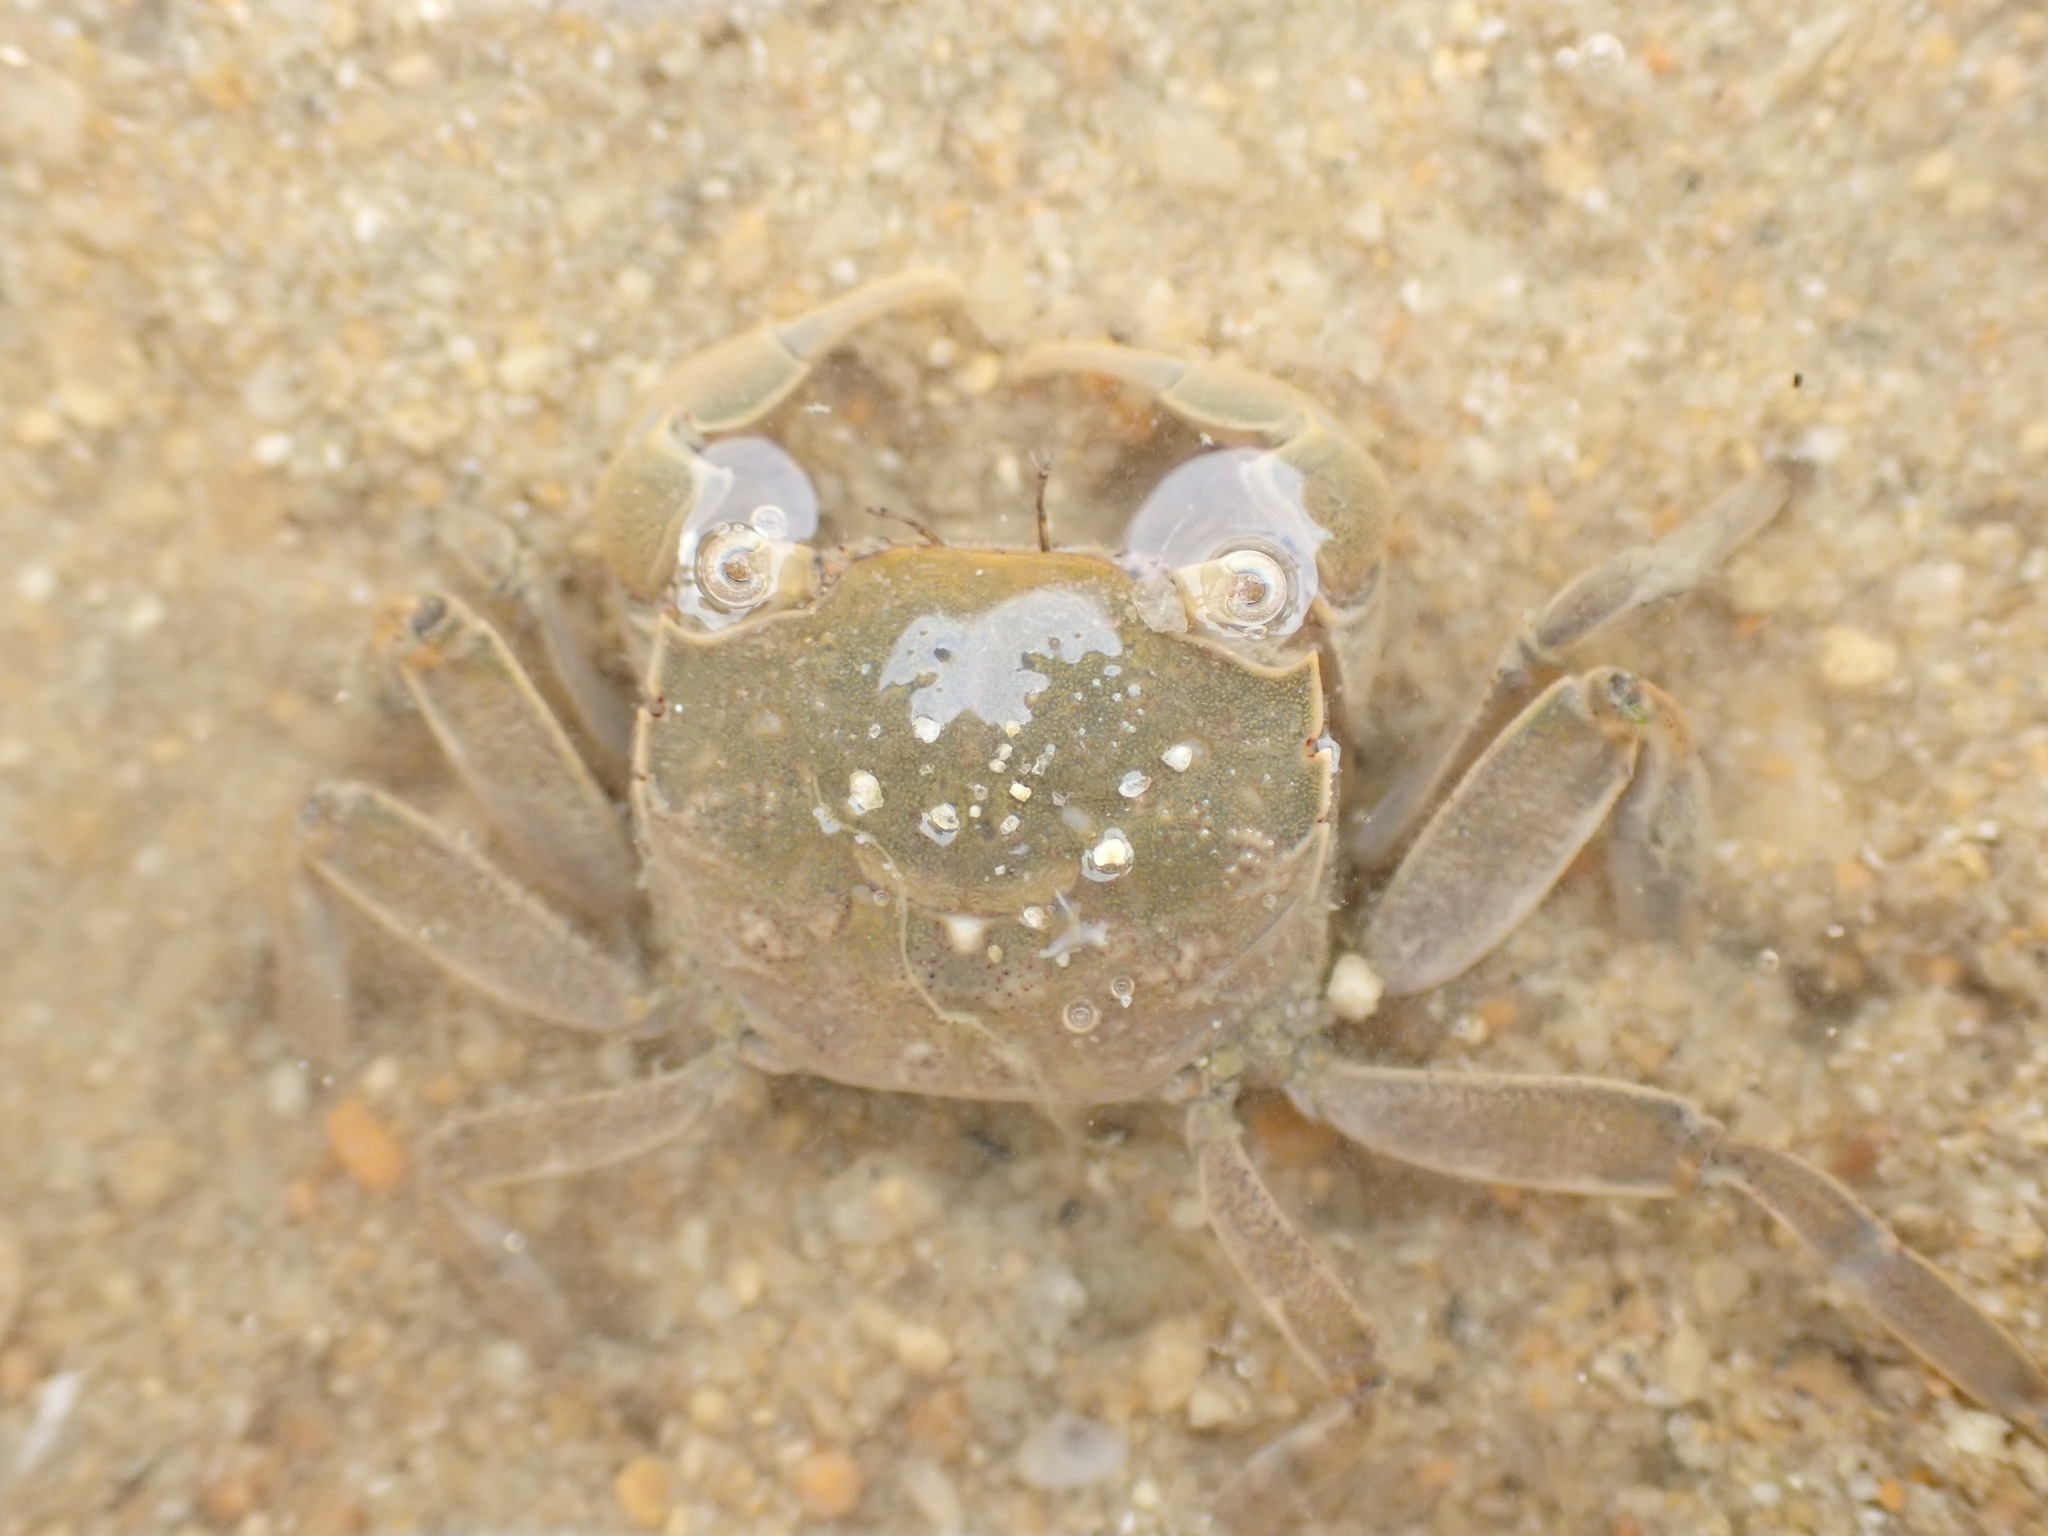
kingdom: Animalia
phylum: Arthropoda
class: Malacostraca
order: Decapoda
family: Varunidae
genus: Austrohelice
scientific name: Austrohelice crassa
